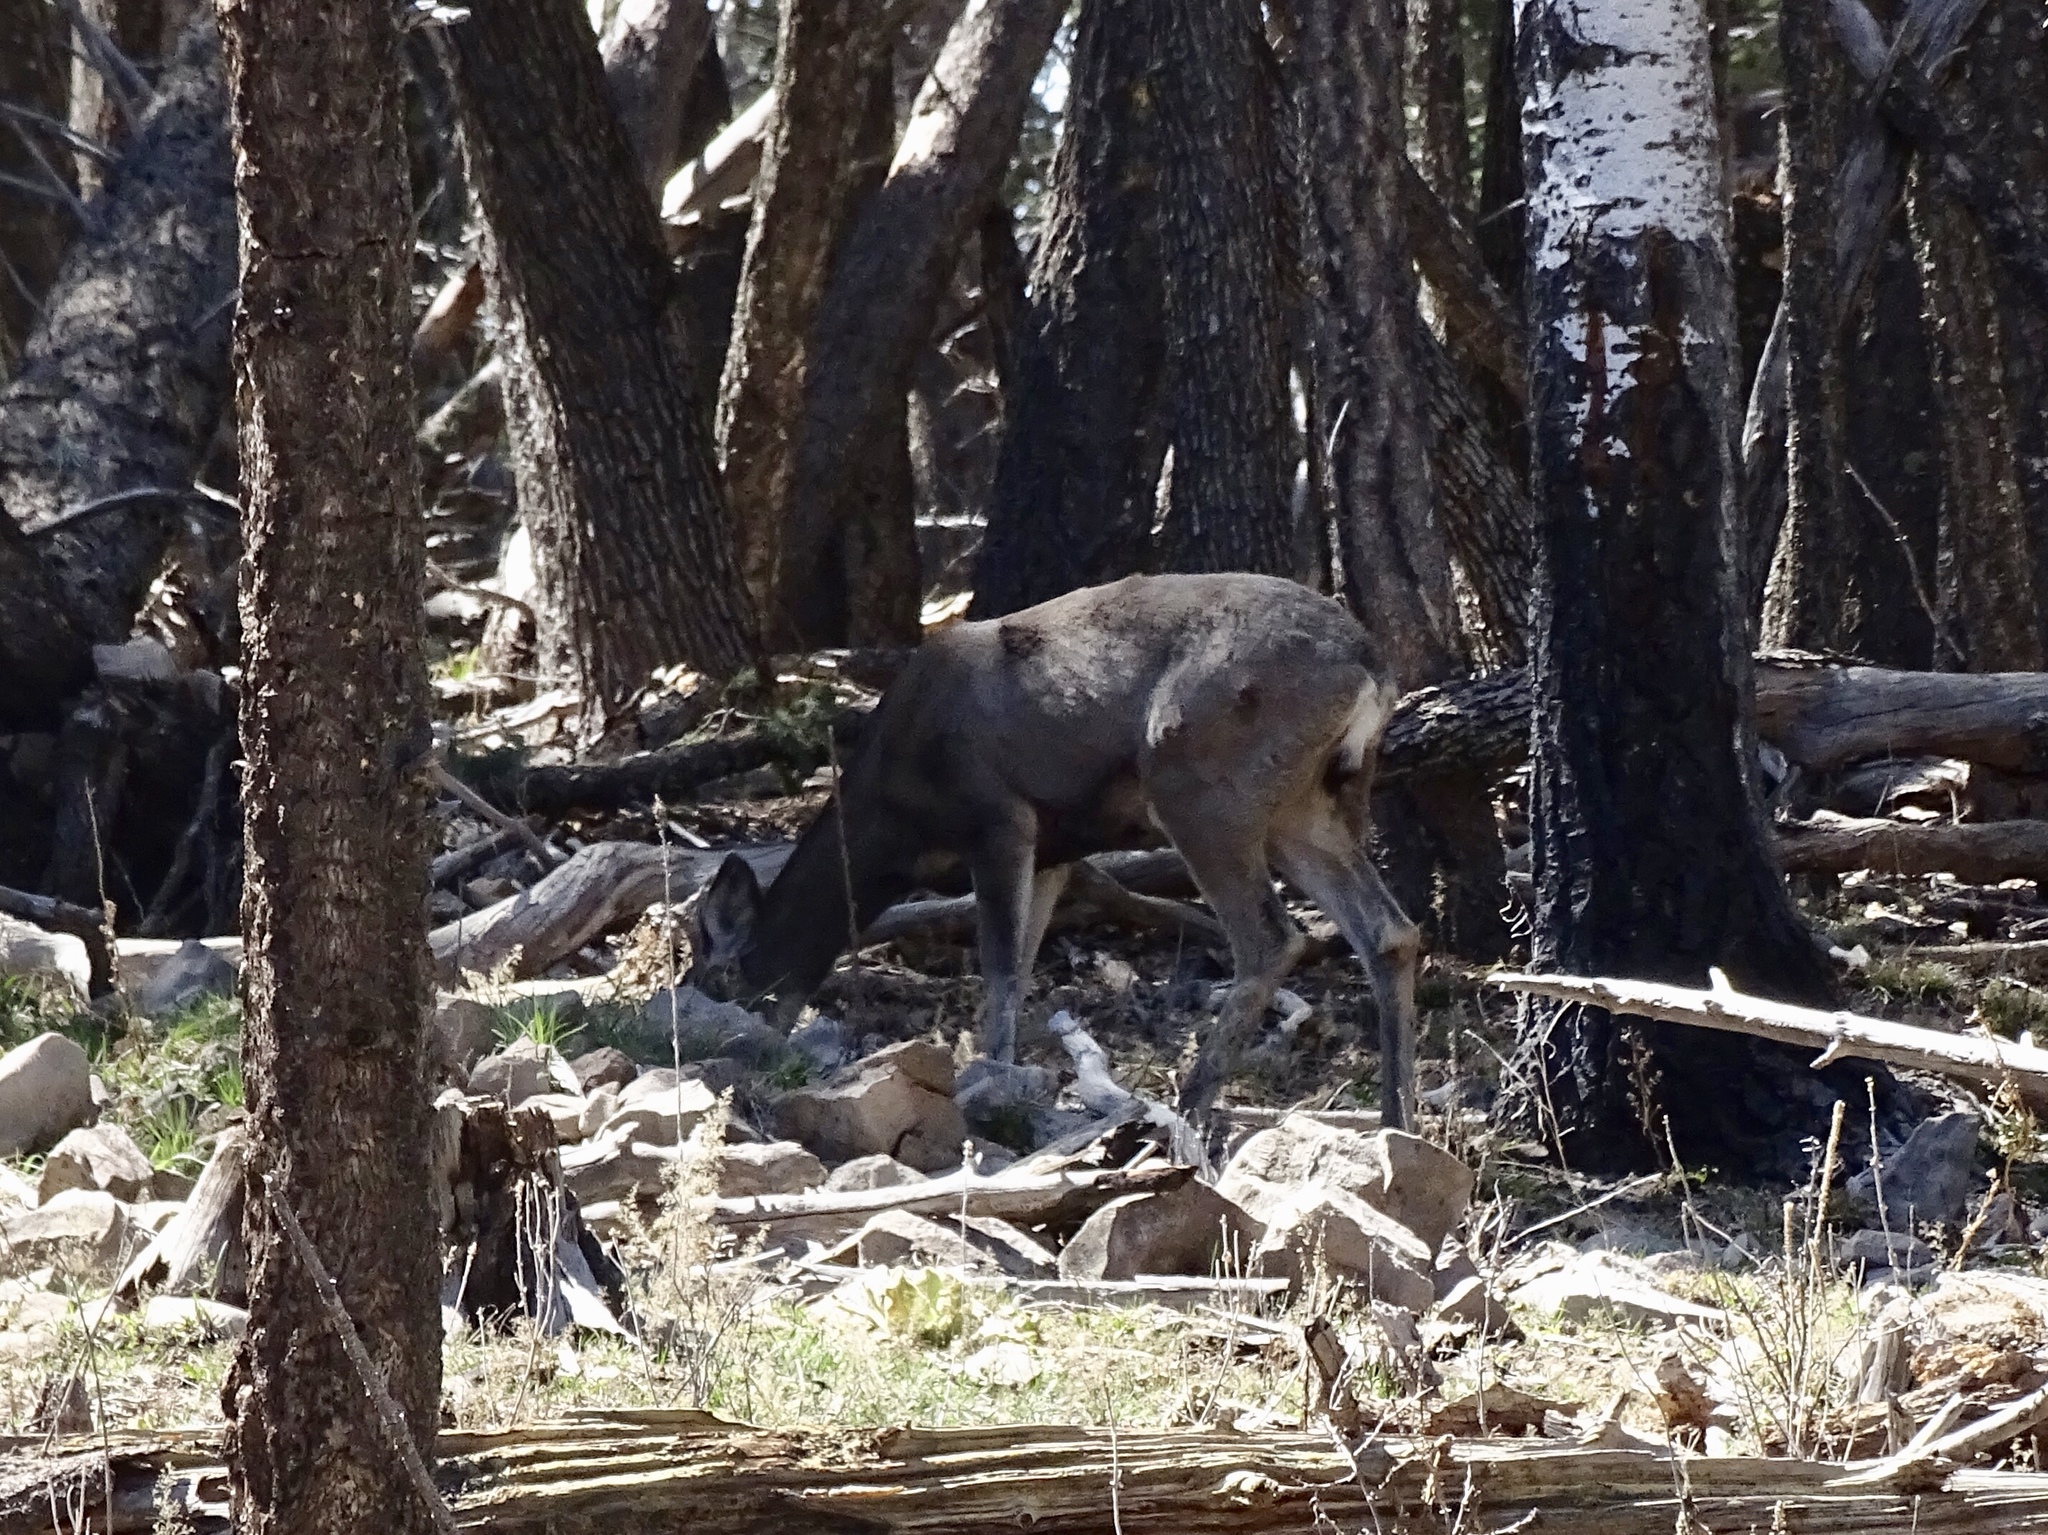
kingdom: Animalia
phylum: Chordata
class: Mammalia
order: Artiodactyla
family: Cervidae
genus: Odocoileus
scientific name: Odocoileus hemionus
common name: Mule deer
